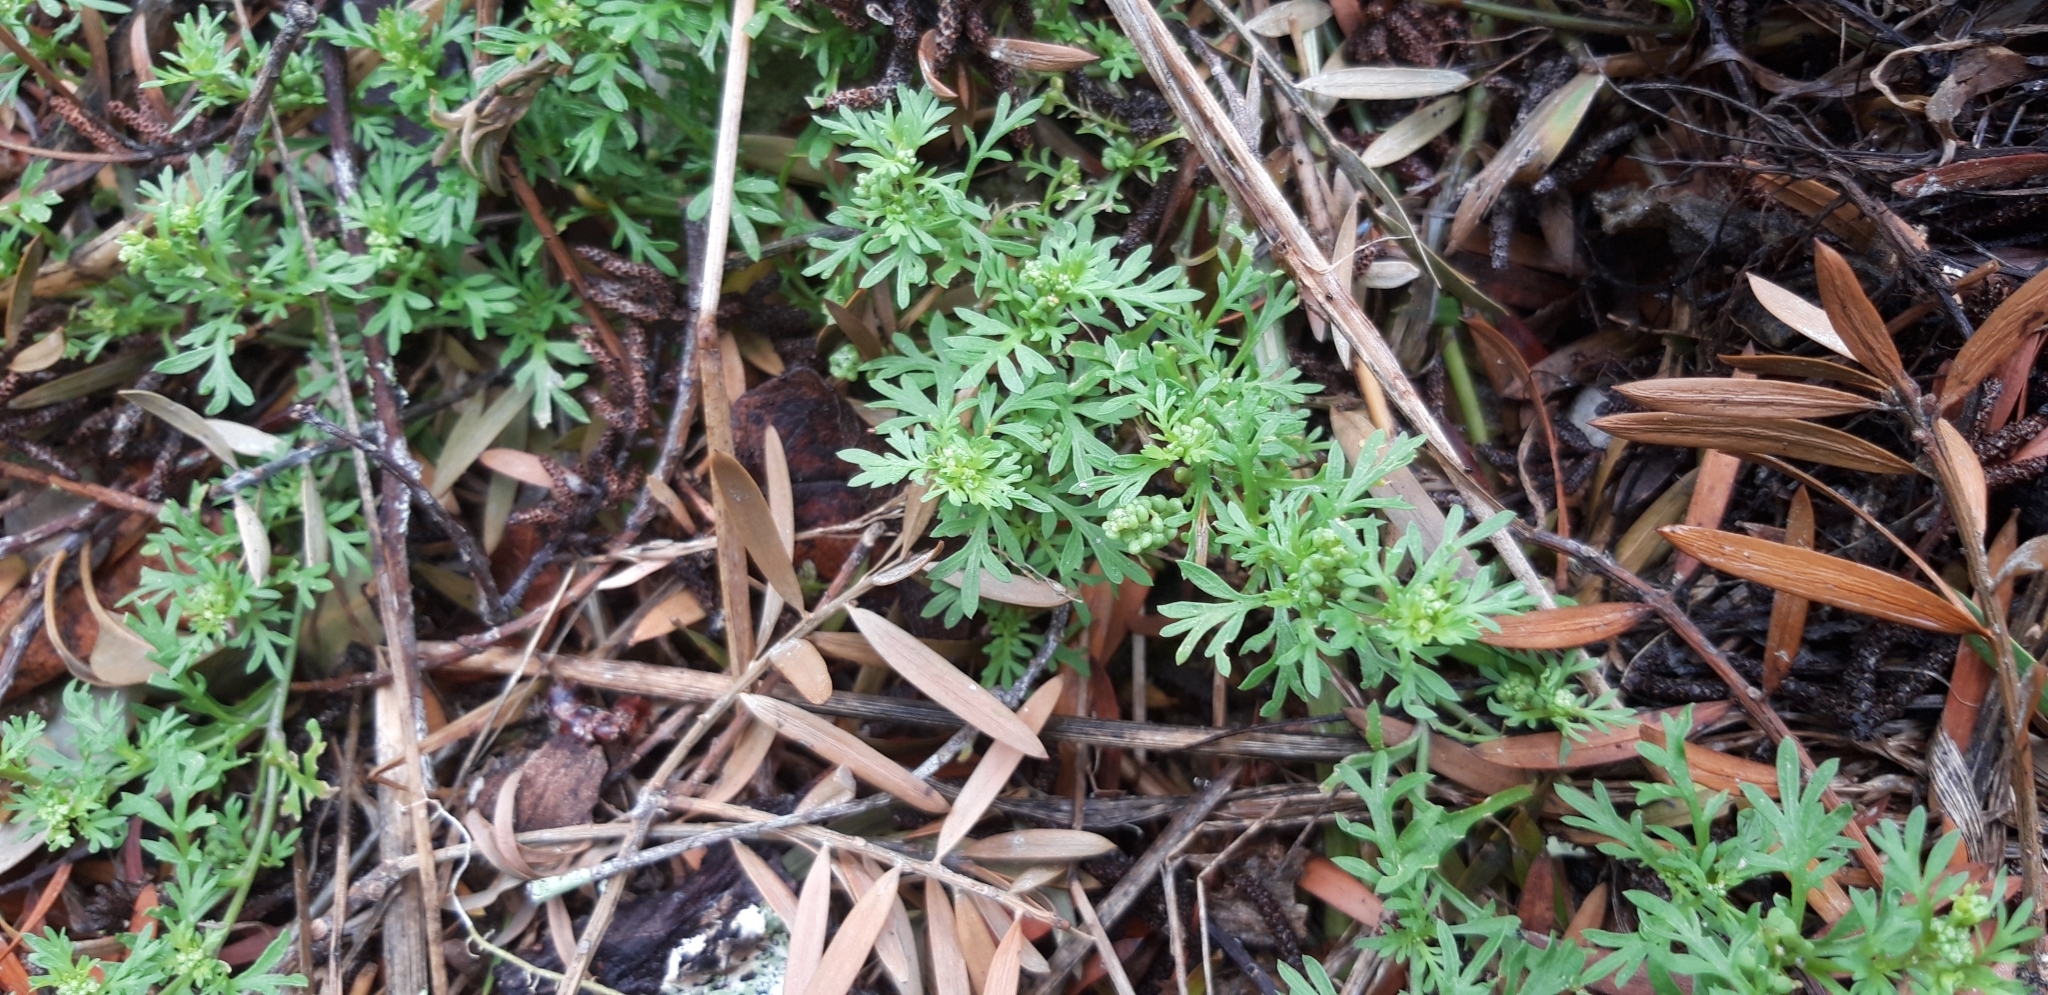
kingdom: Plantae
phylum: Tracheophyta
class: Magnoliopsida
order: Brassicales
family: Brassicaceae
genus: Lepidium
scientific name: Lepidium didymum
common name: Lesser swinecress
